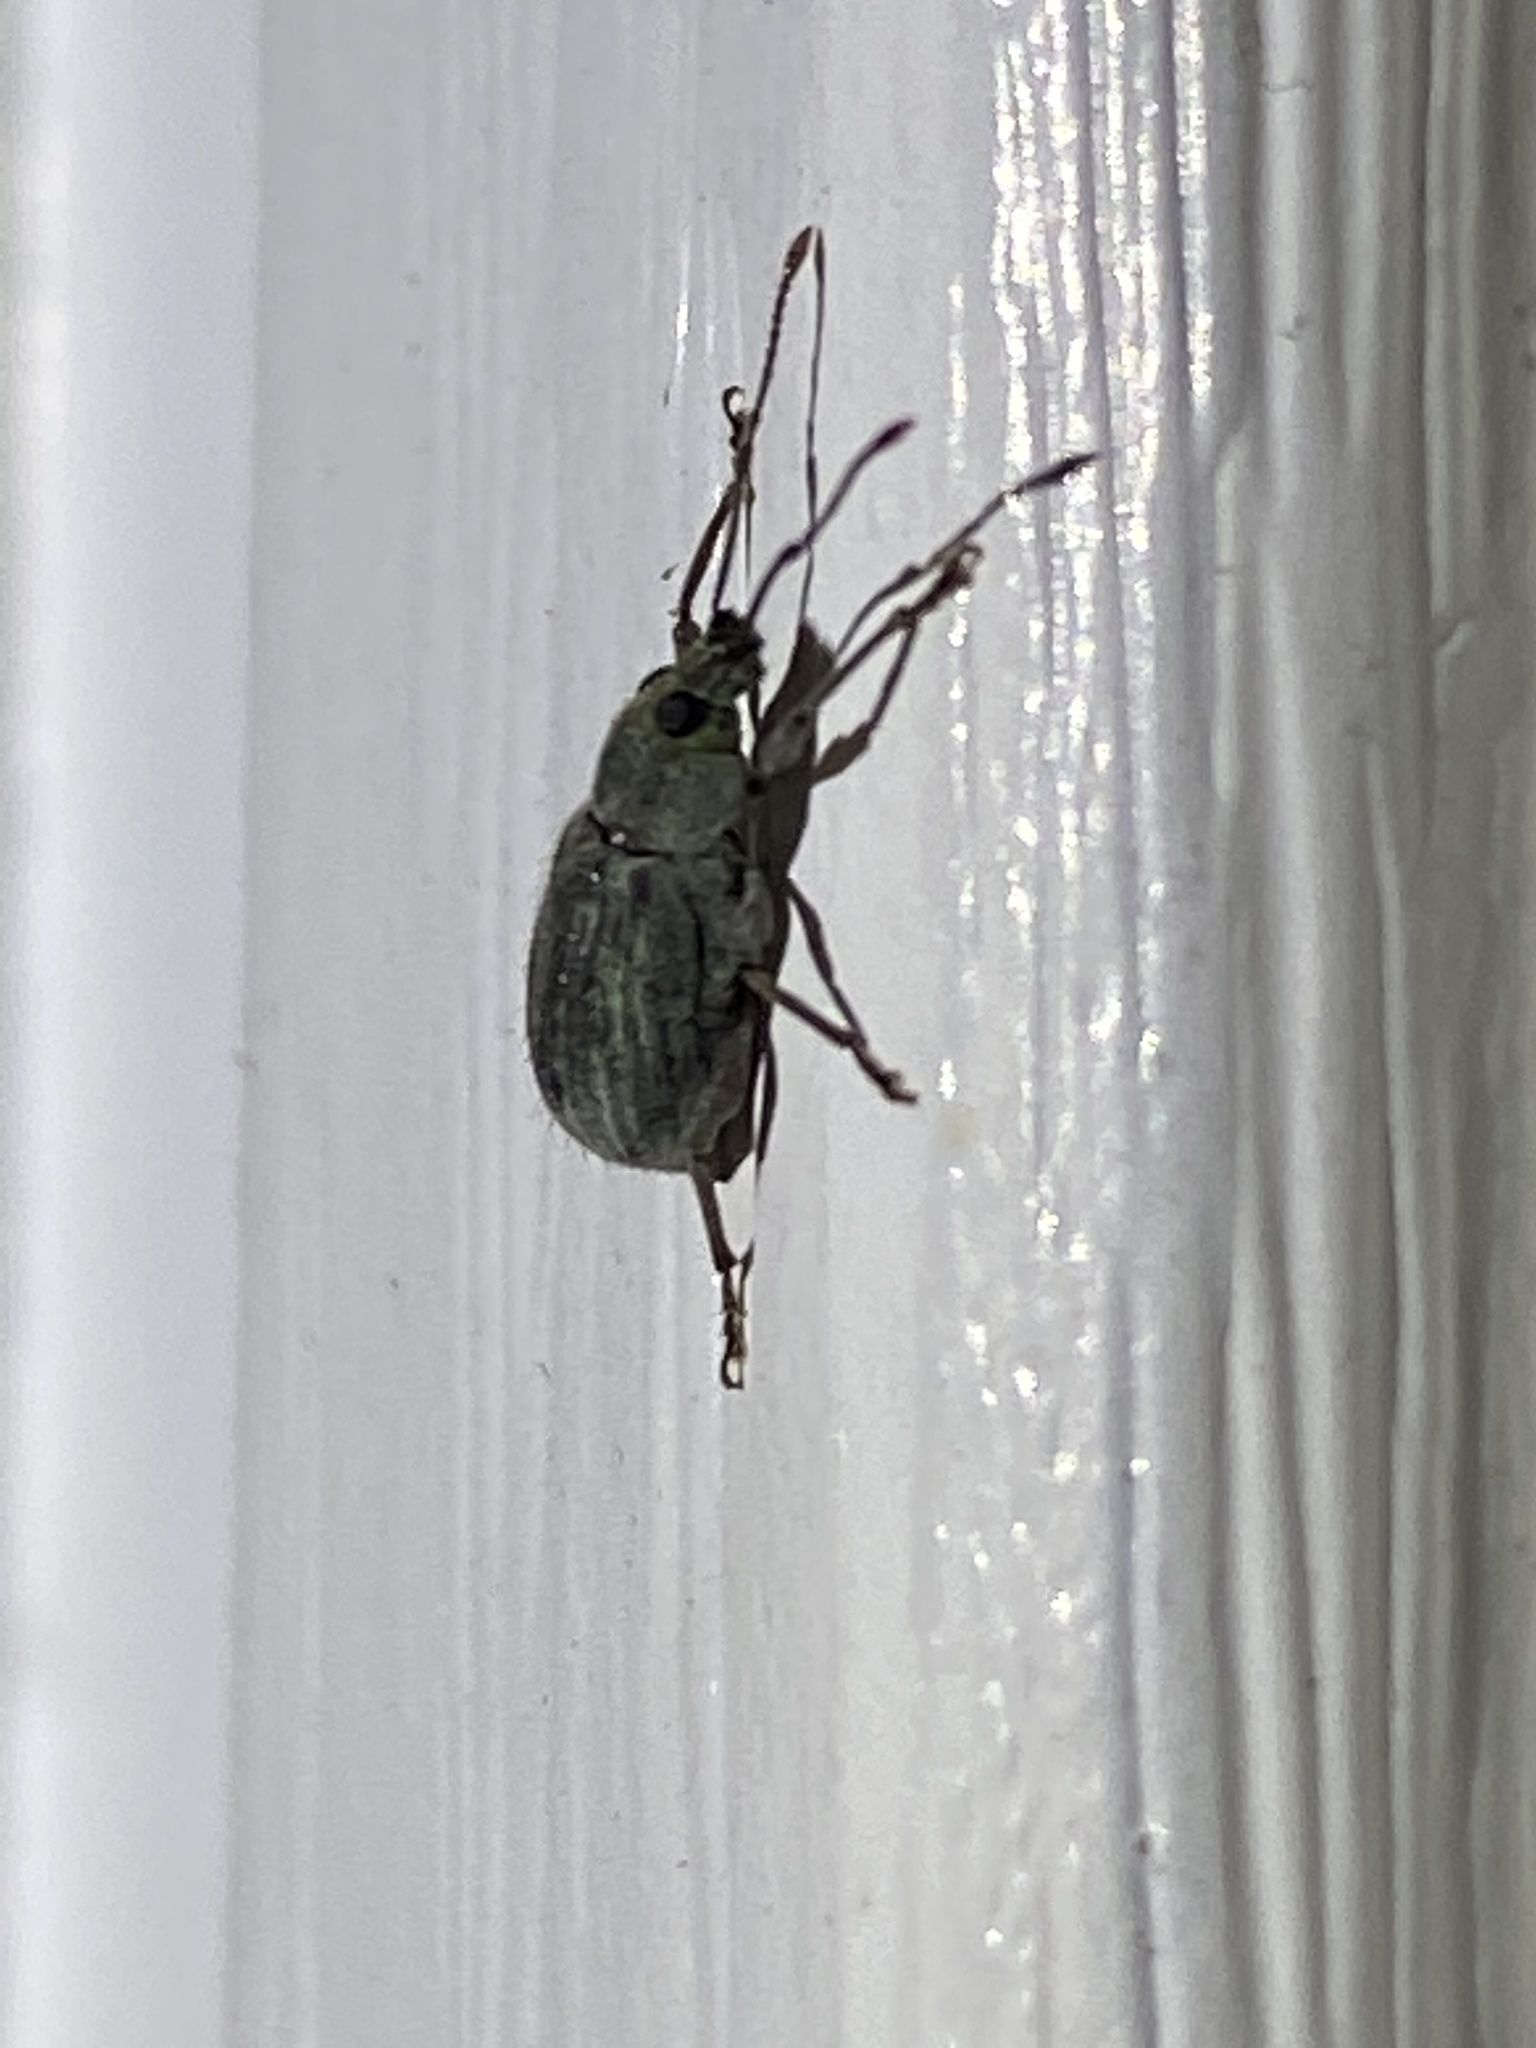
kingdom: Animalia
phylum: Arthropoda
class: Insecta
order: Coleoptera
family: Curculionidae
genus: Cyrtepistomus
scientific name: Cyrtepistomus castaneus
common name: Weevil
